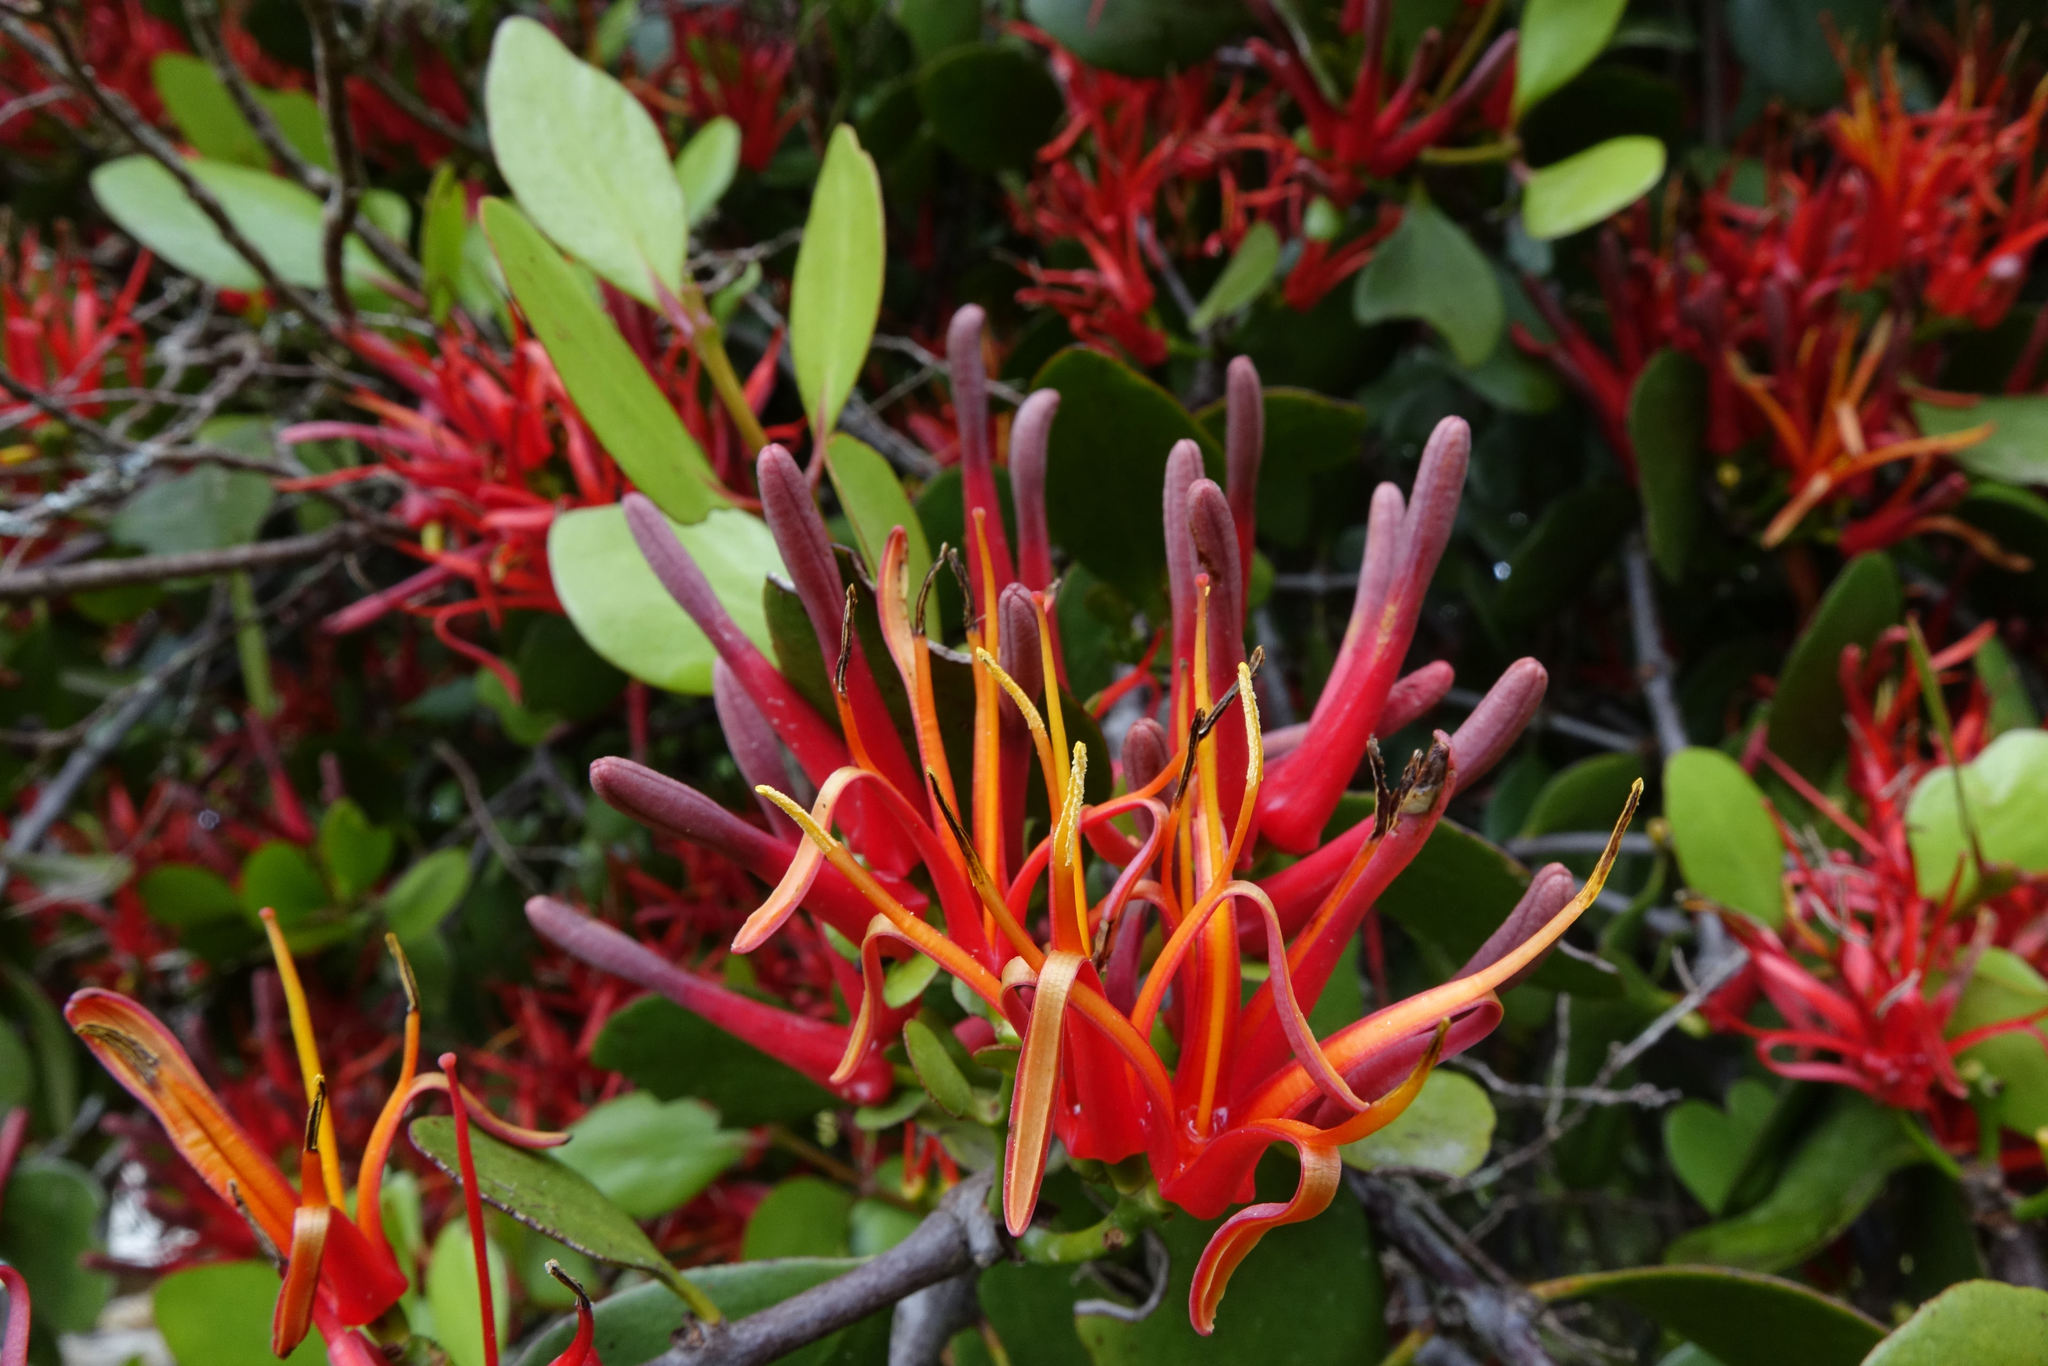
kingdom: Plantae
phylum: Tracheophyta
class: Magnoliopsida
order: Santalales
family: Loranthaceae
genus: Peraxilla
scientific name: Peraxilla colensoi
